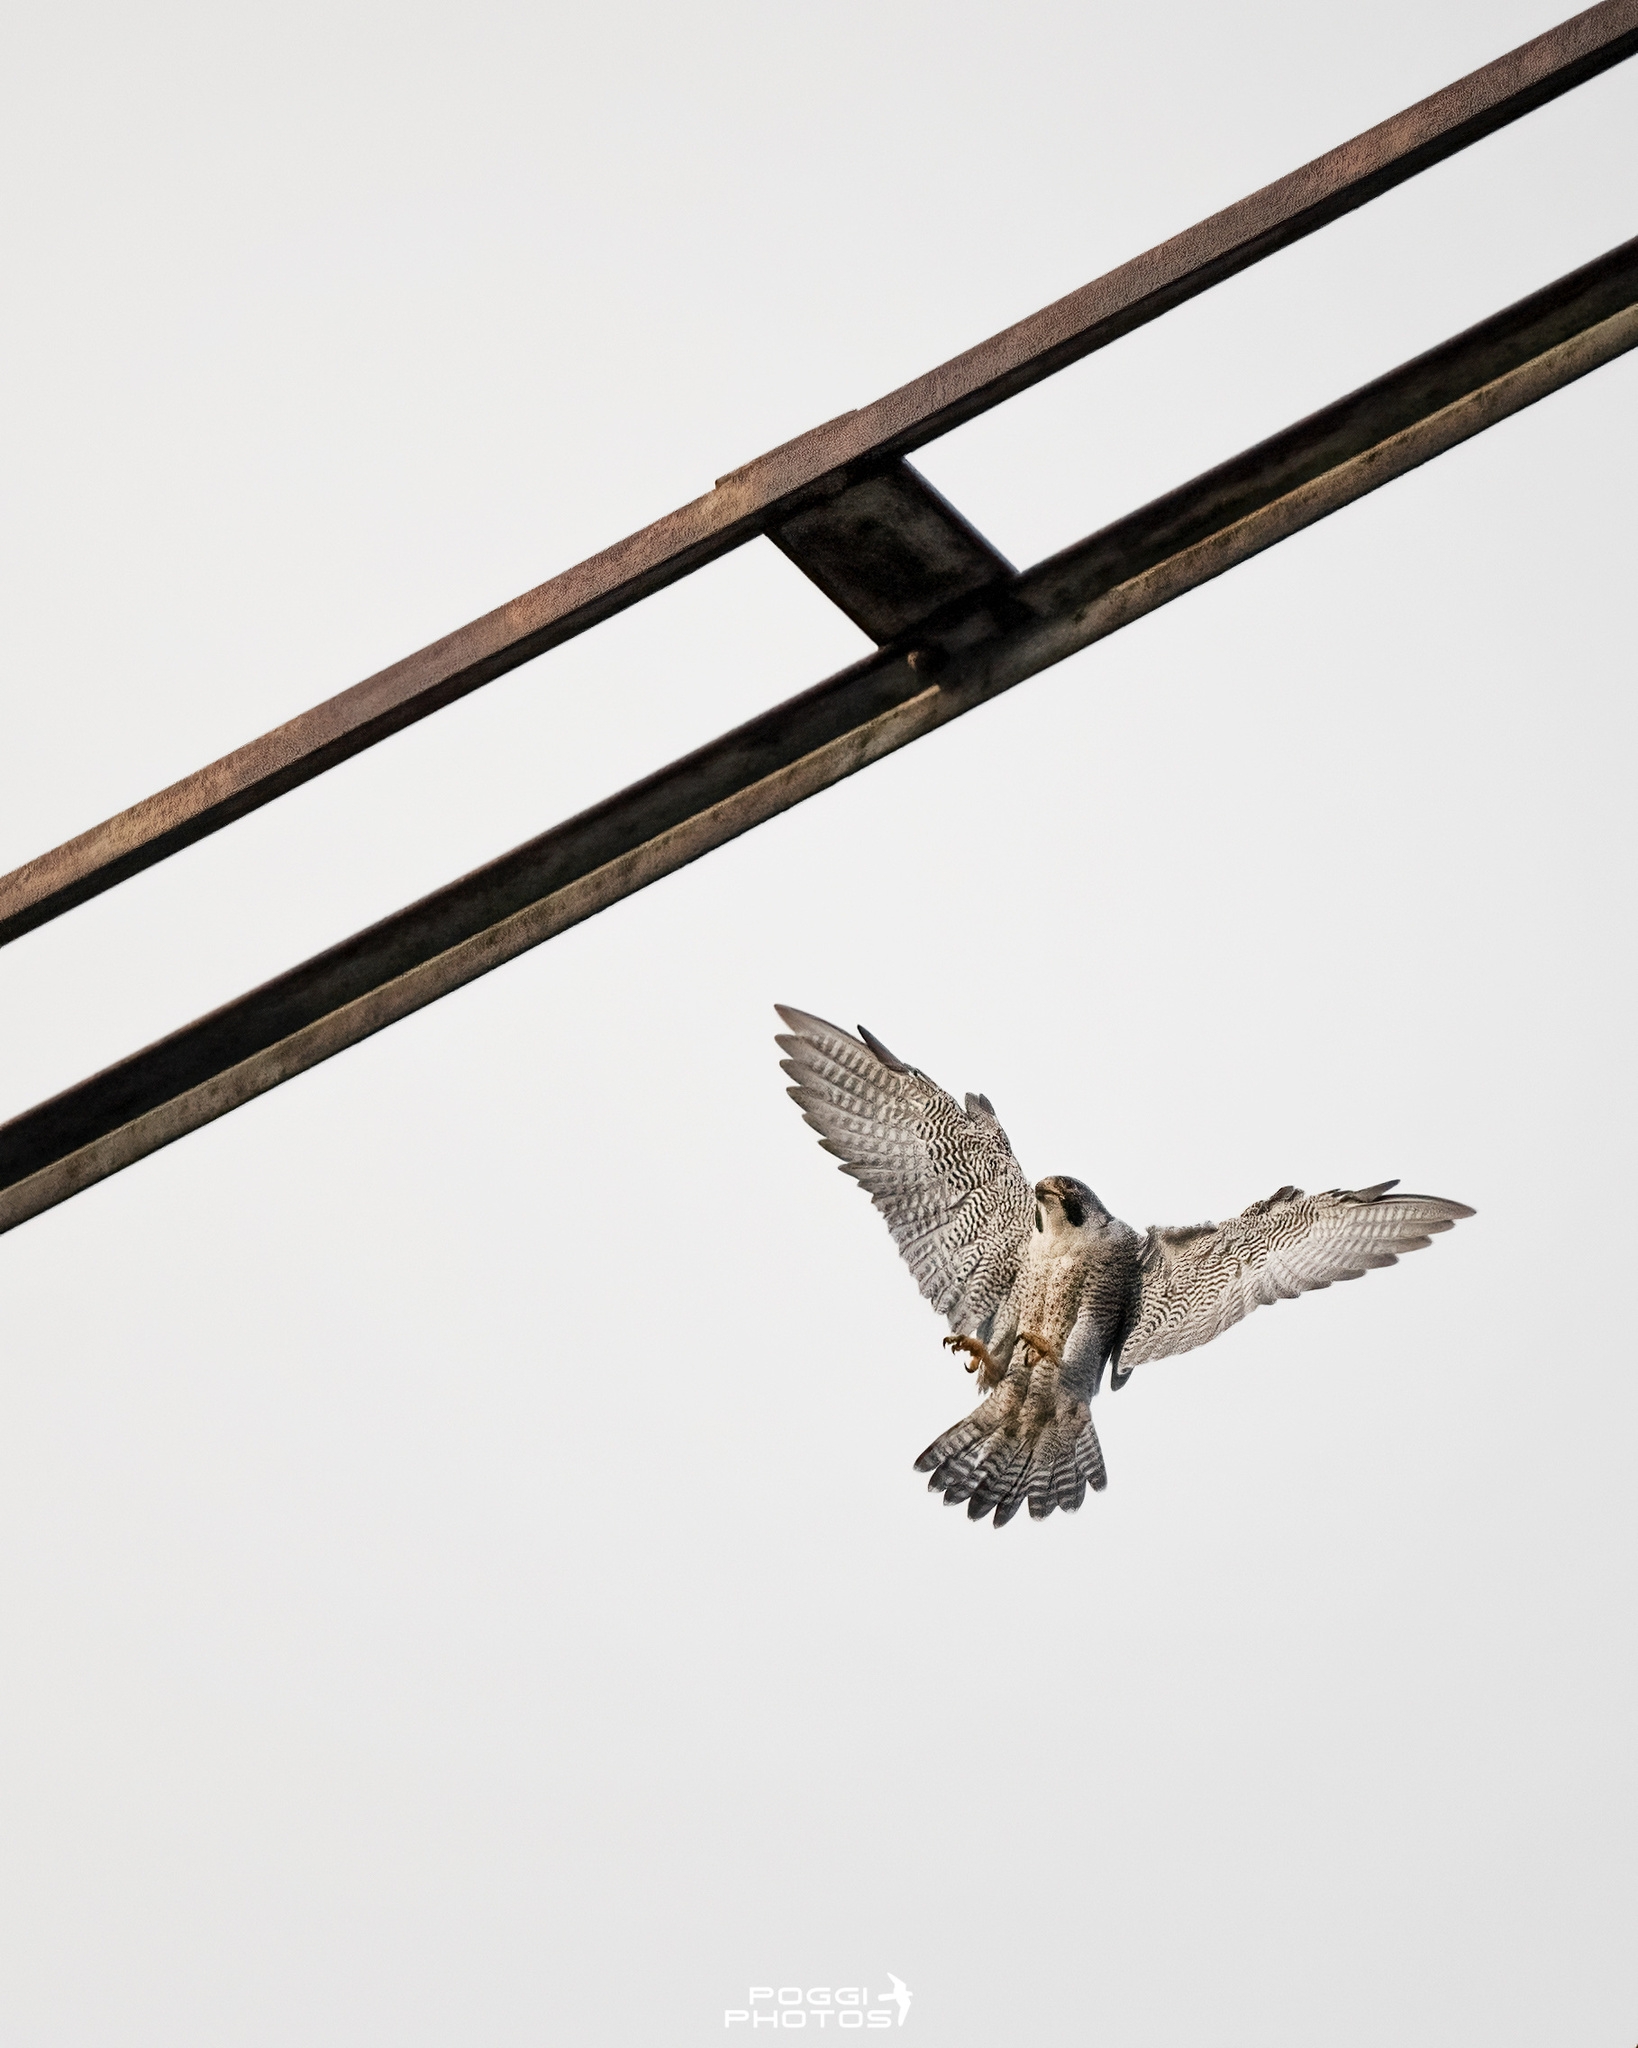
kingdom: Animalia
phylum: Chordata
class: Aves
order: Falconiformes
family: Falconidae
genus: Falco
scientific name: Falco peregrinus
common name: Peregrine falcon
